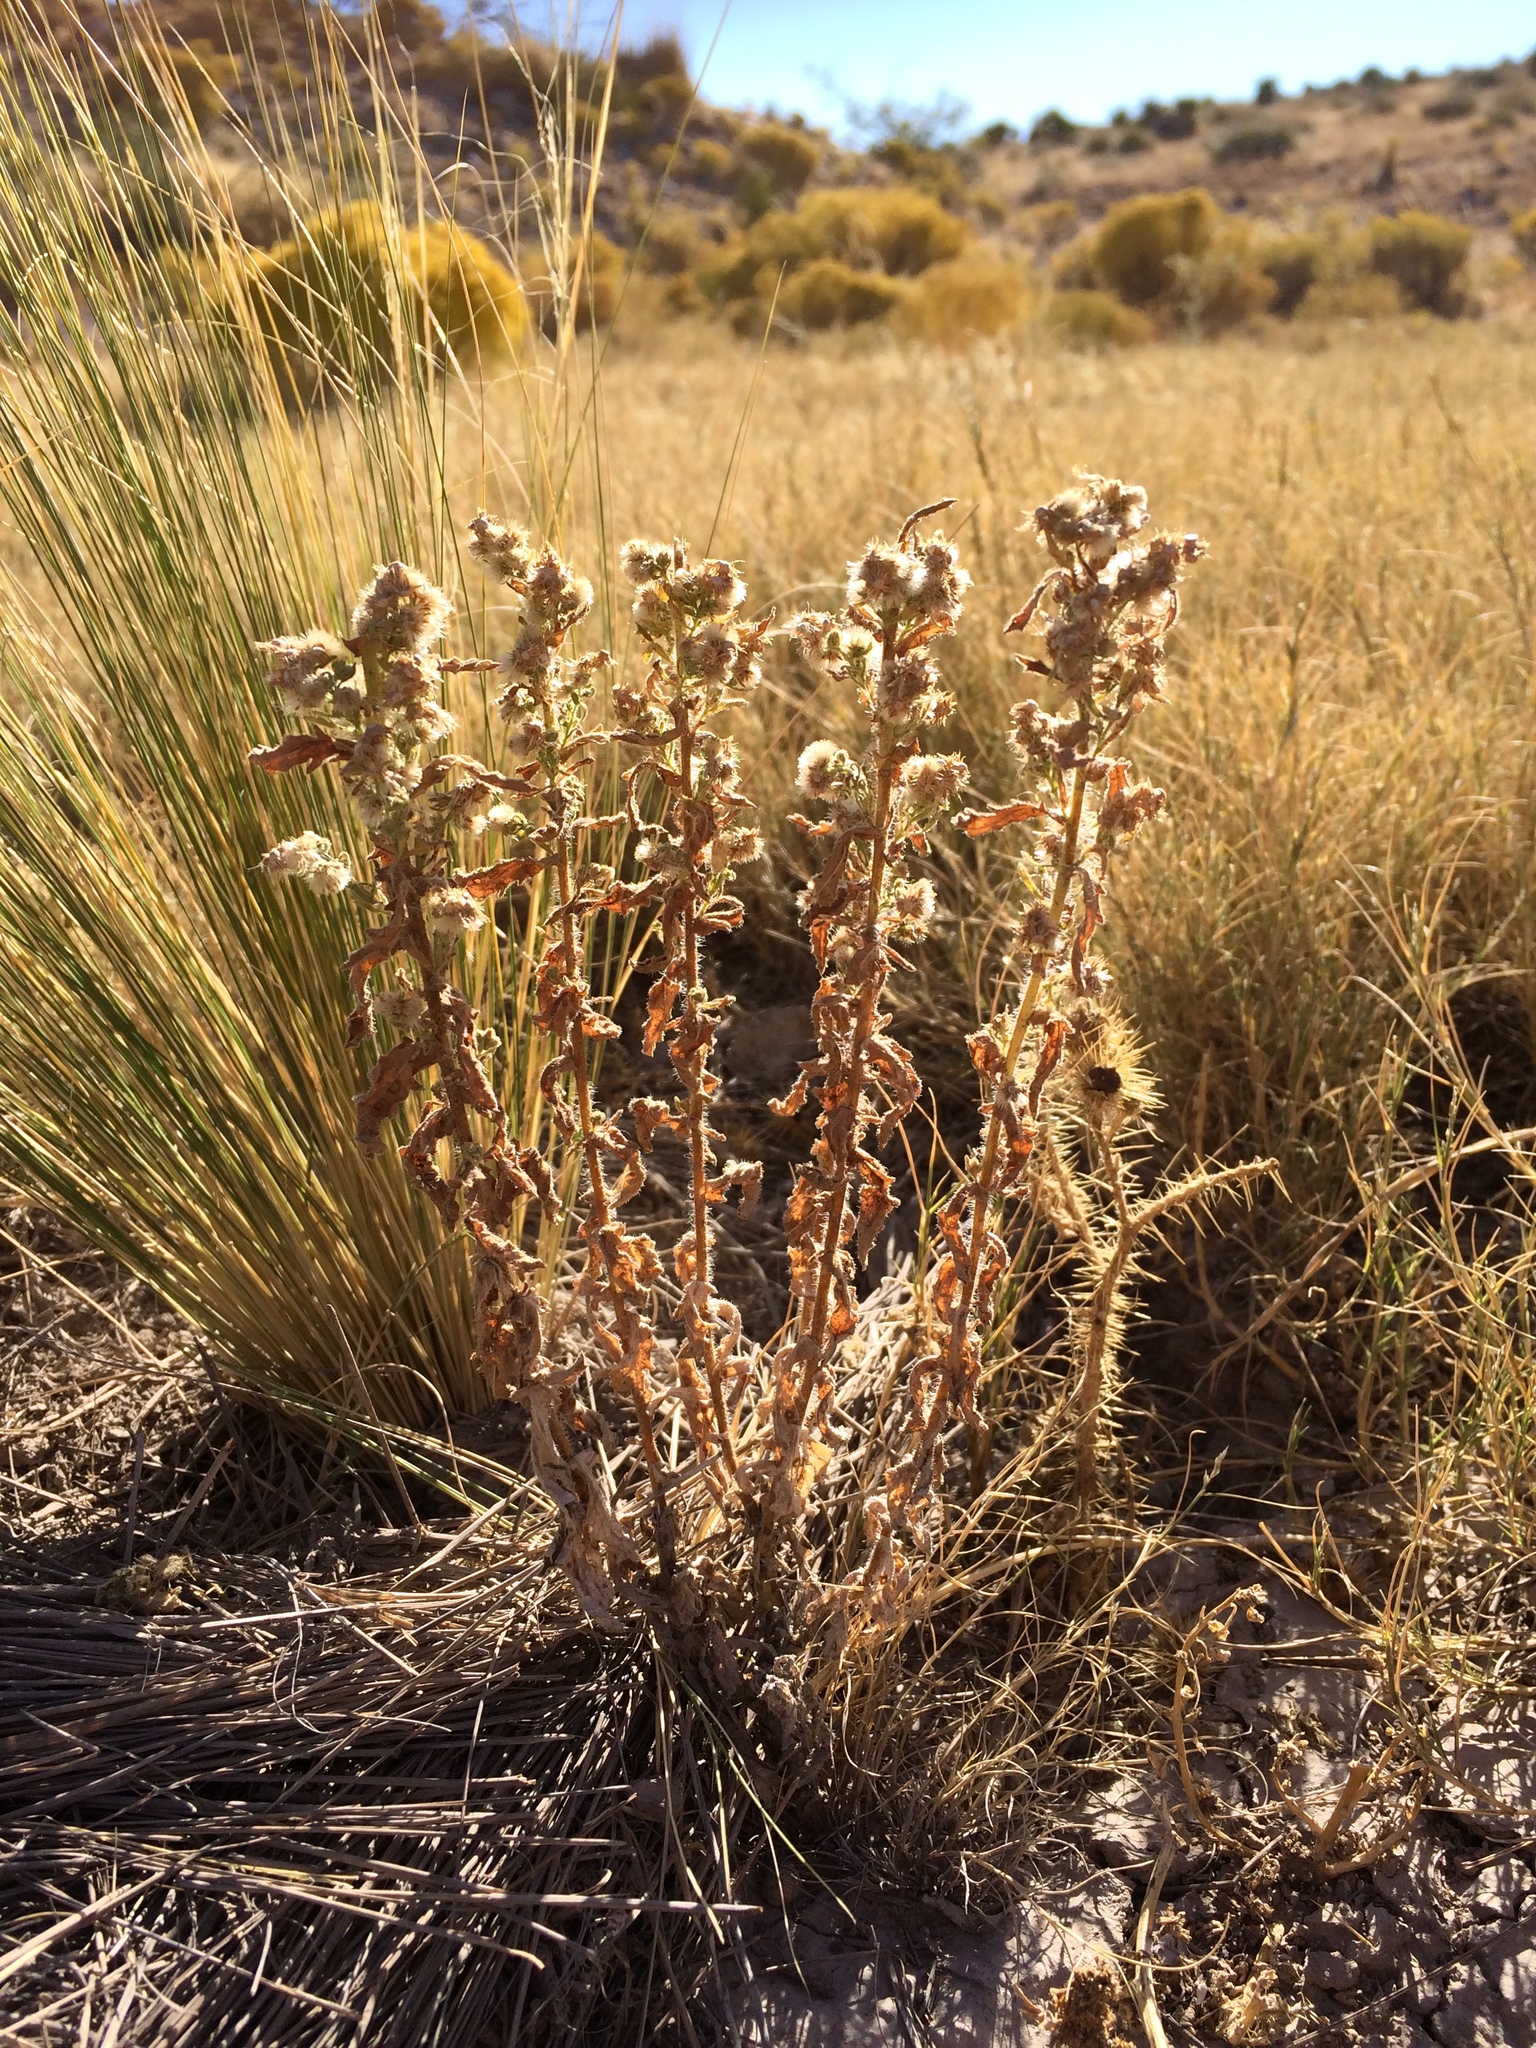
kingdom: Plantae
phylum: Tracheophyta
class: Magnoliopsida
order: Asterales
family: Asteraceae
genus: Laennecia
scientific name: Laennecia coulteri
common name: Coulter's woolwort
